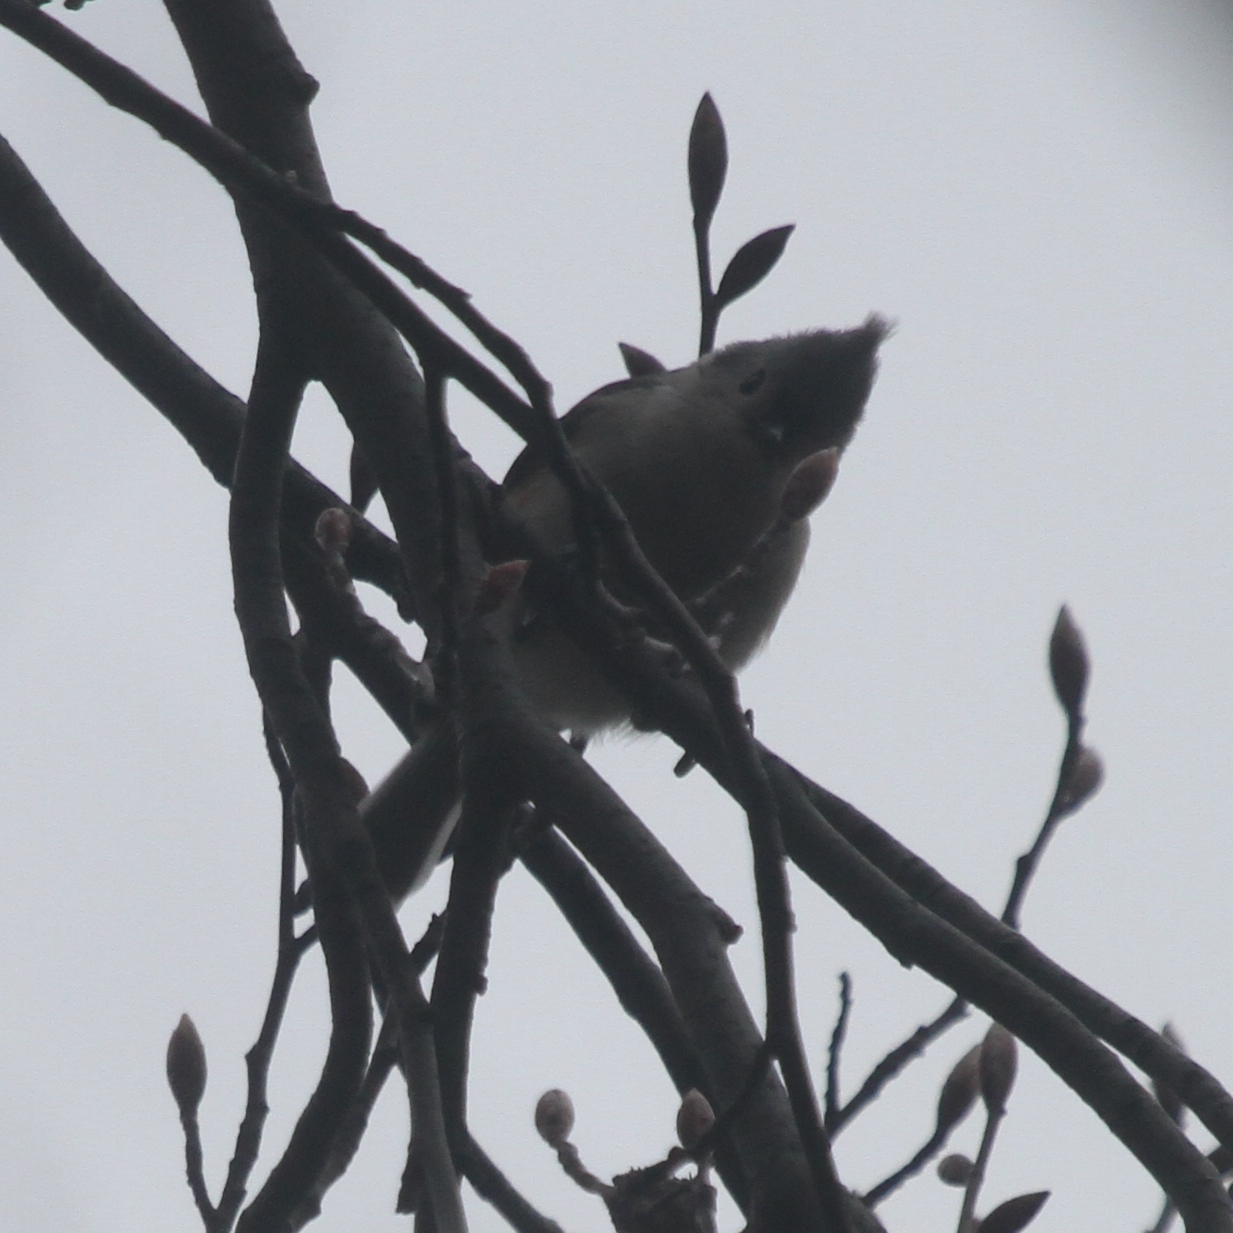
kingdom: Animalia
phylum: Chordata
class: Aves
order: Passeriformes
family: Paridae
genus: Baeolophus
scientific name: Baeolophus bicolor
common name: Tufted titmouse
